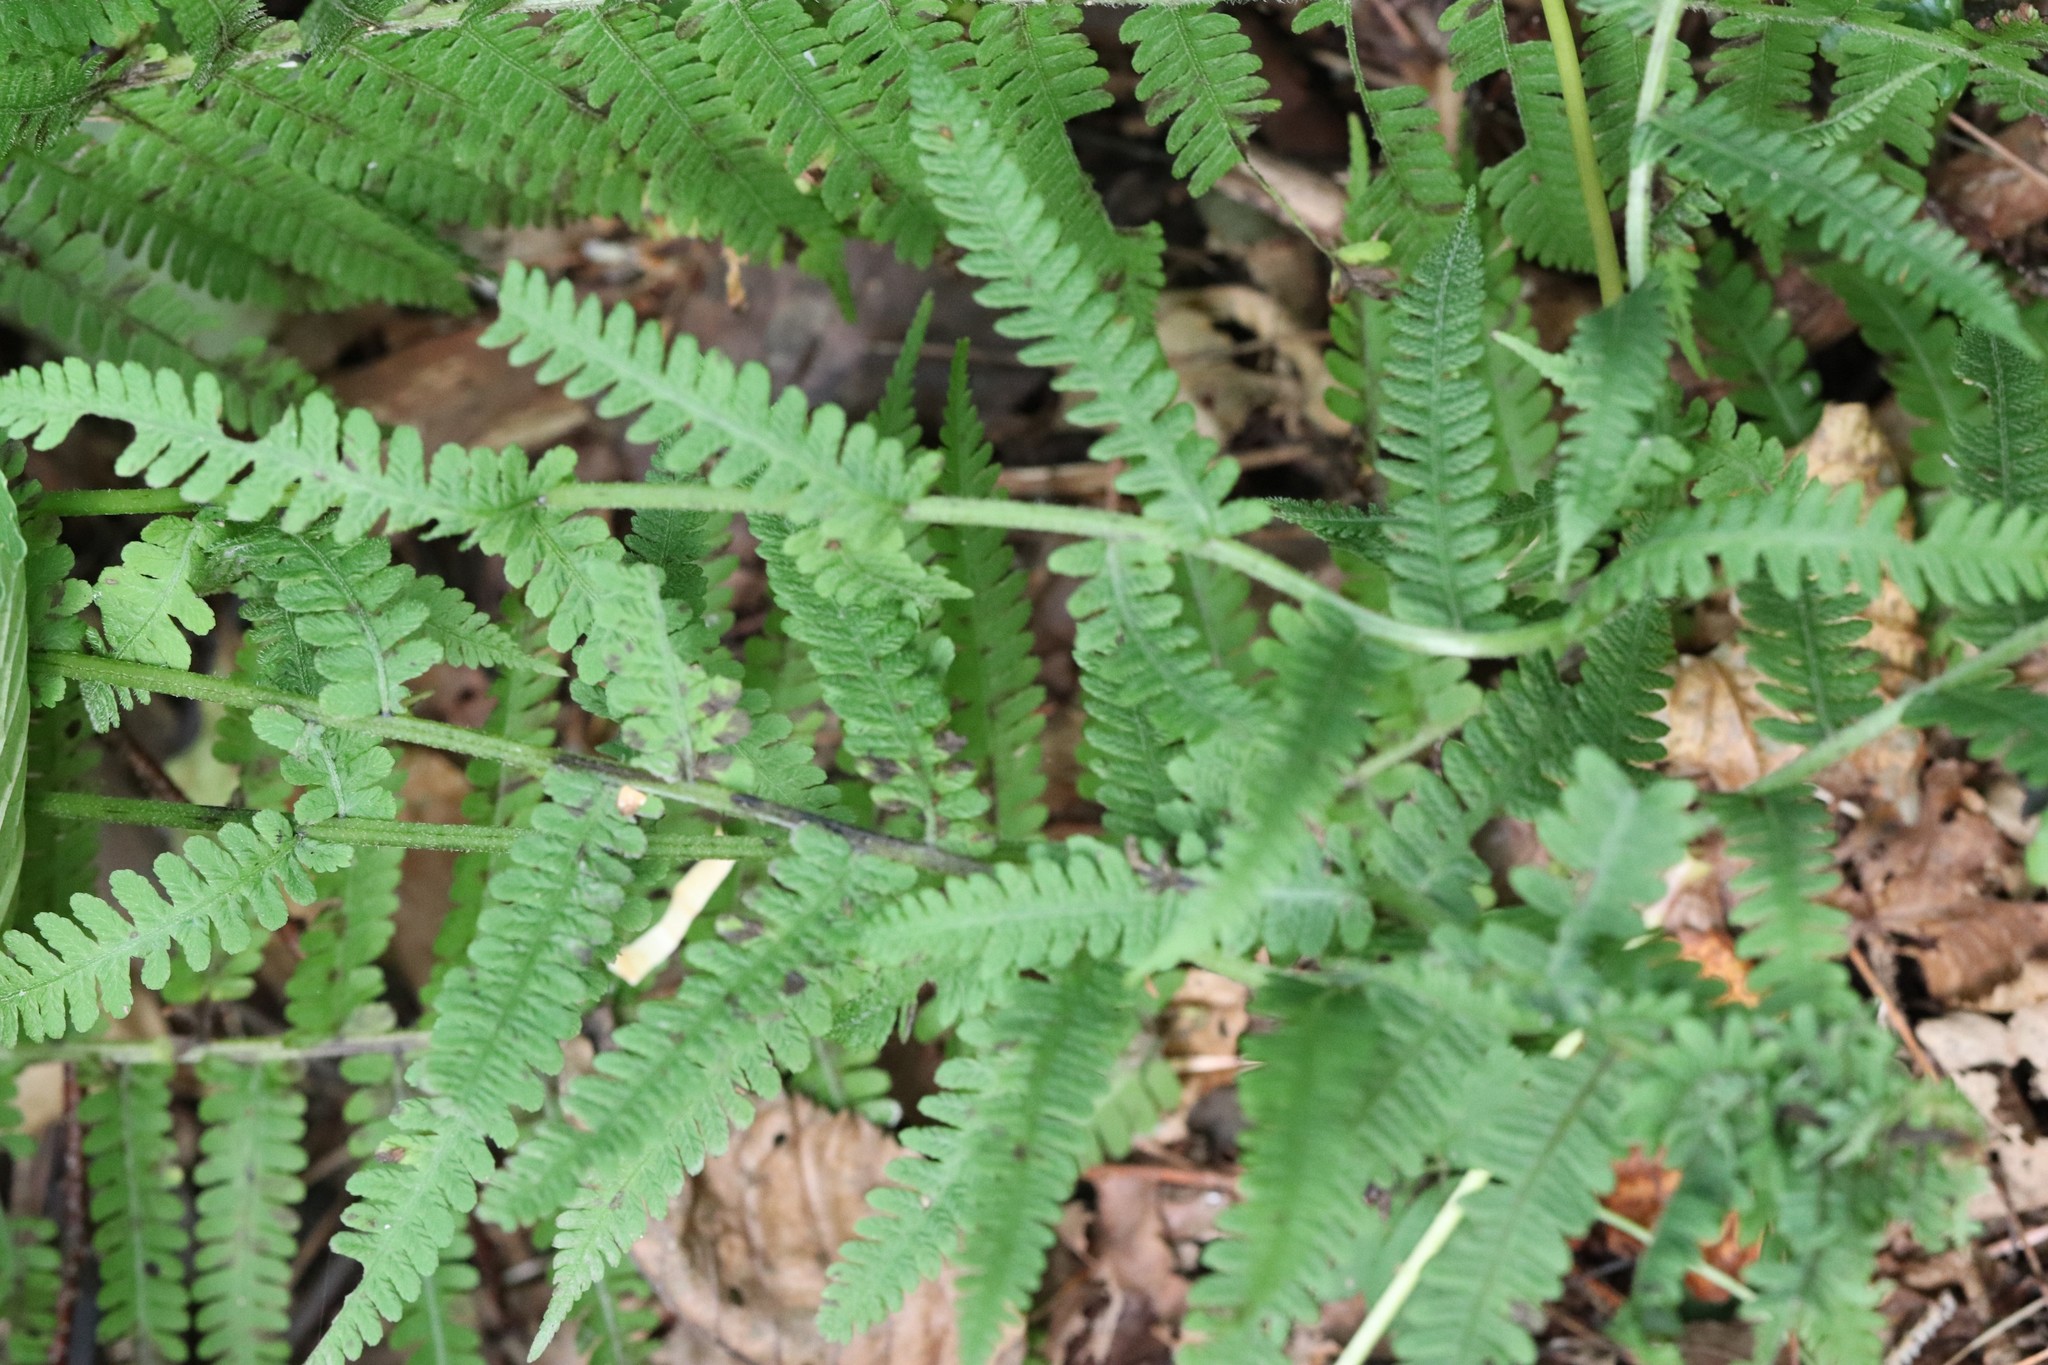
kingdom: Plantae
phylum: Tracheophyta
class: Polypodiopsida
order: Polypodiales
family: Athyriaceae
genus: Deparia
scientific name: Deparia pycnosora
